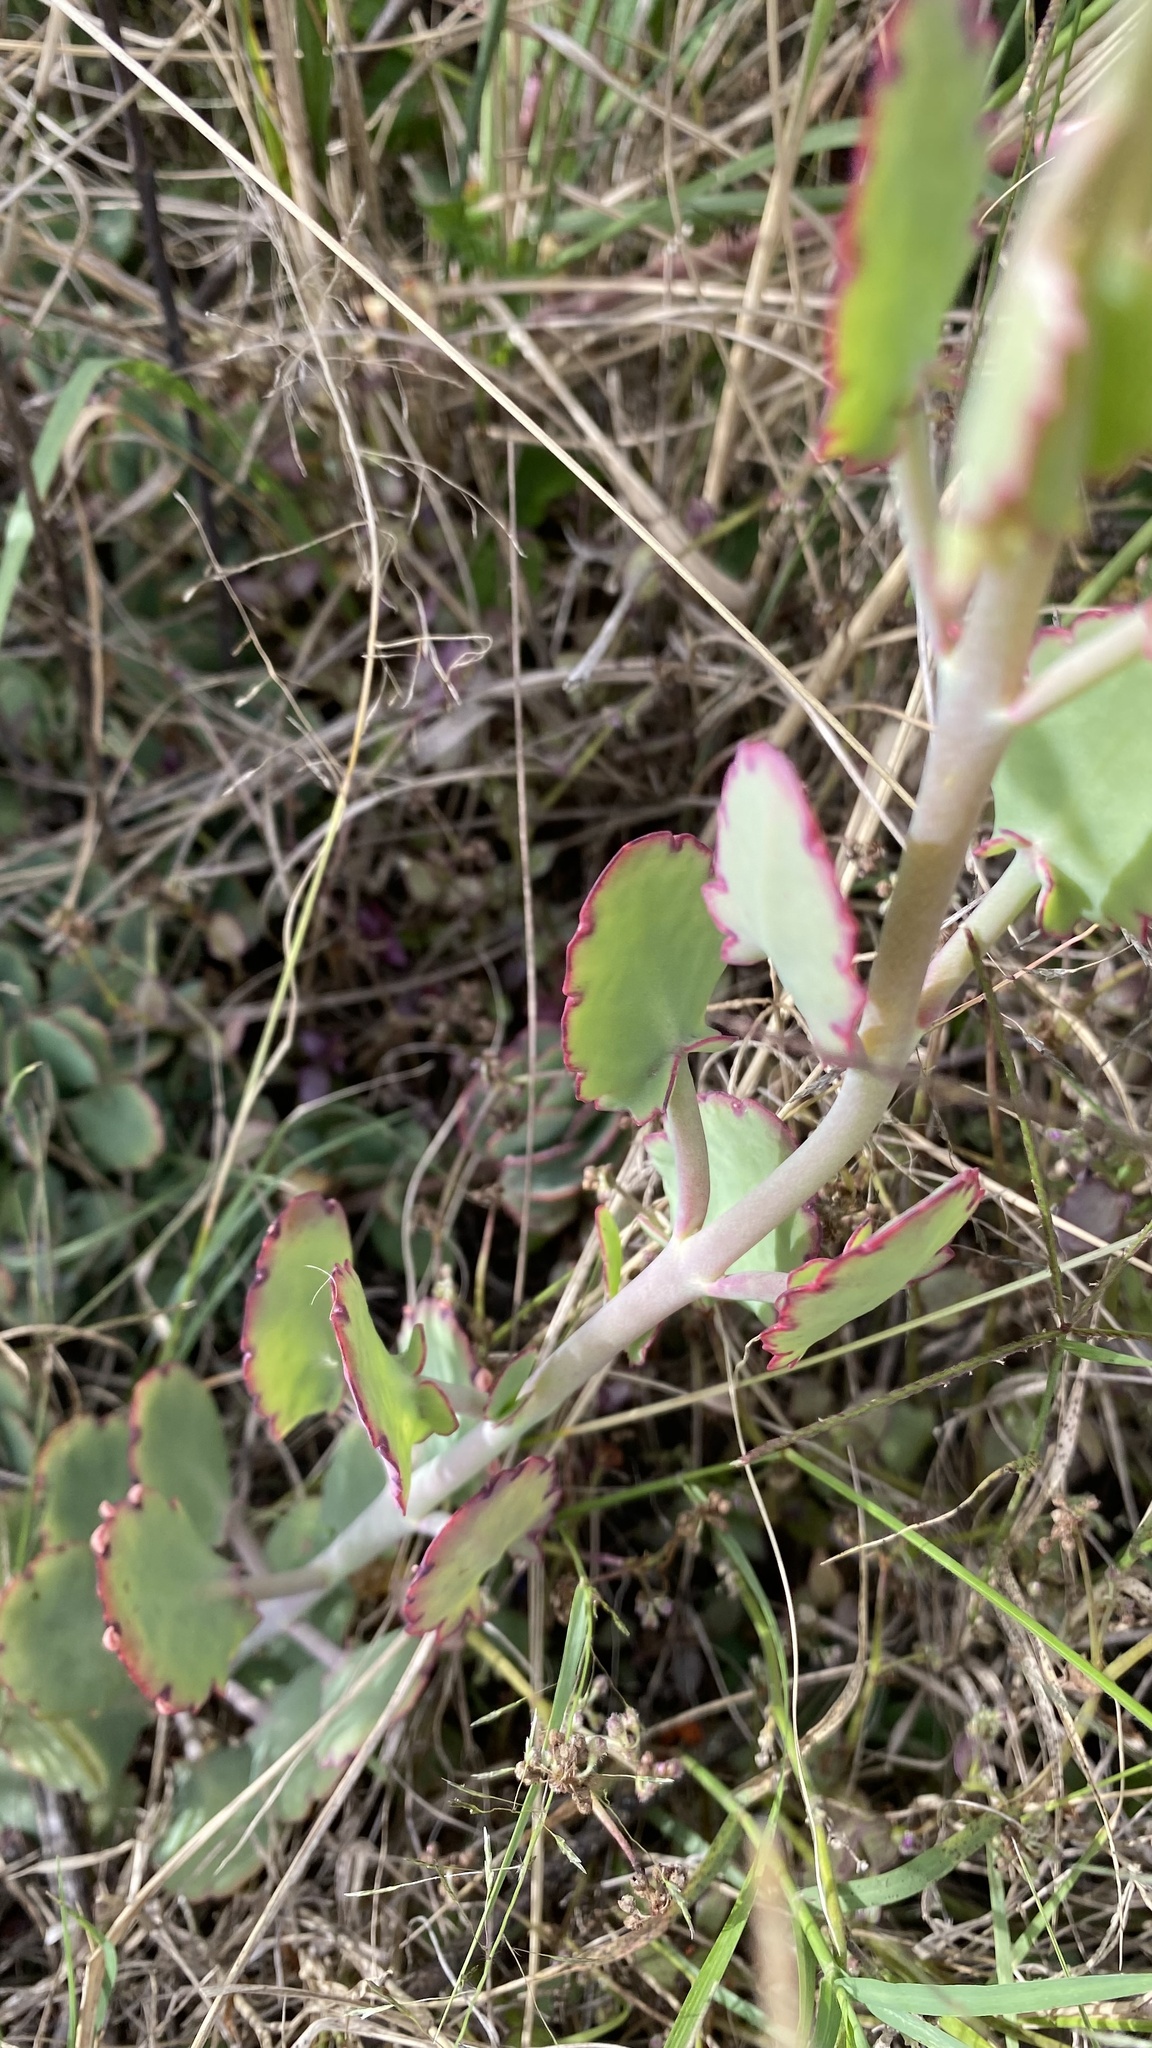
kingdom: Plantae
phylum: Tracheophyta
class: Magnoliopsida
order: Saxifragales
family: Crassulaceae
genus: Kalanchoe
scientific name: Kalanchoe laxiflora
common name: Milky widow's thrill
